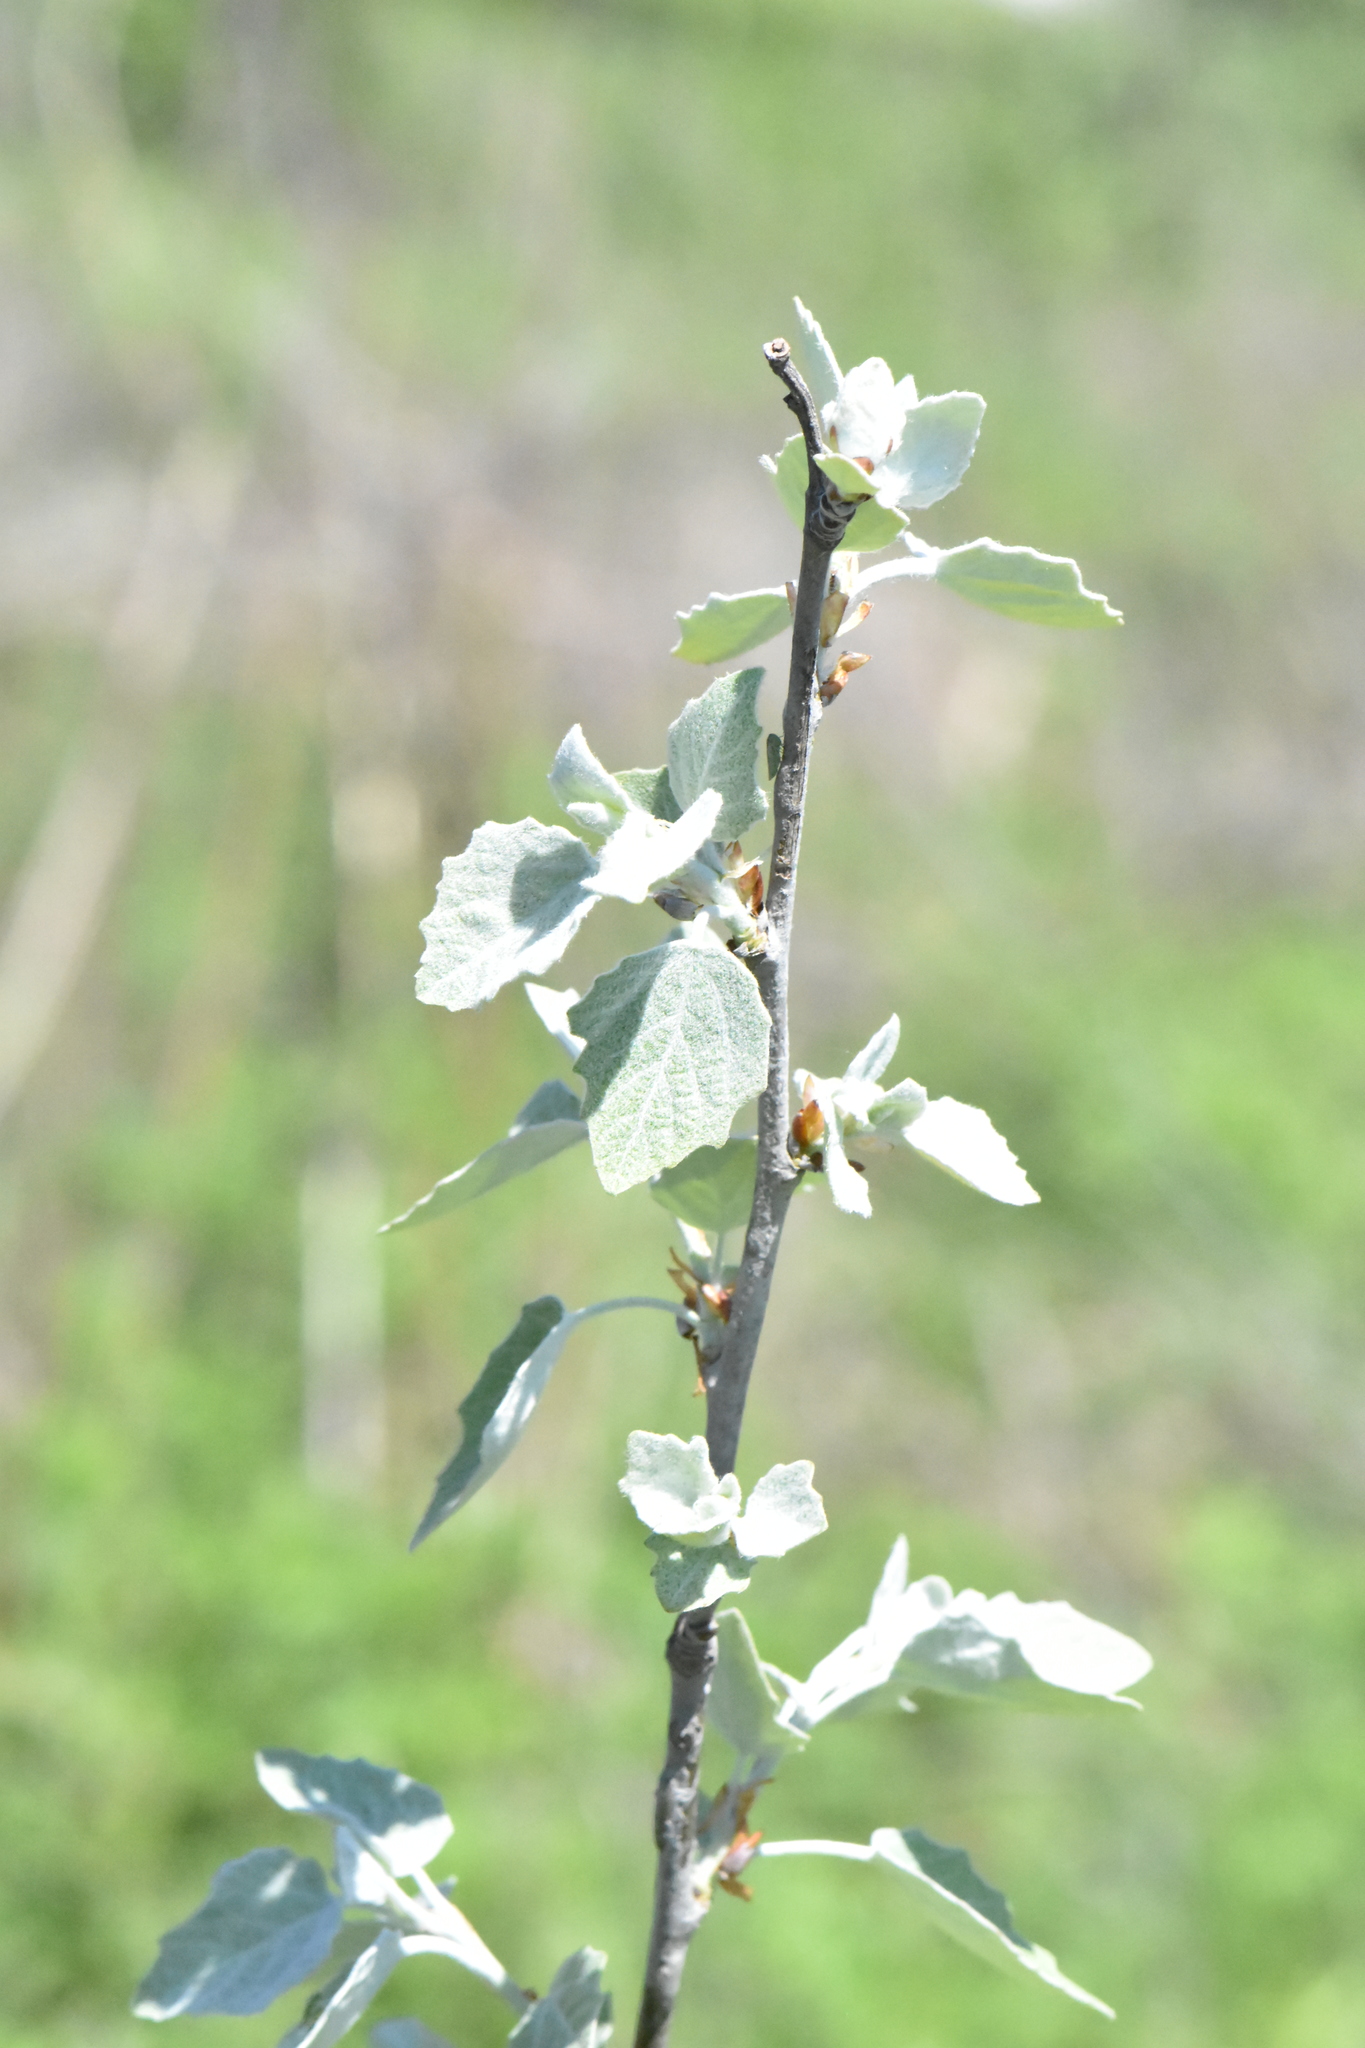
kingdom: Plantae
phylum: Tracheophyta
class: Magnoliopsida
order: Malpighiales
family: Salicaceae
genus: Populus
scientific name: Populus alba
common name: White poplar
